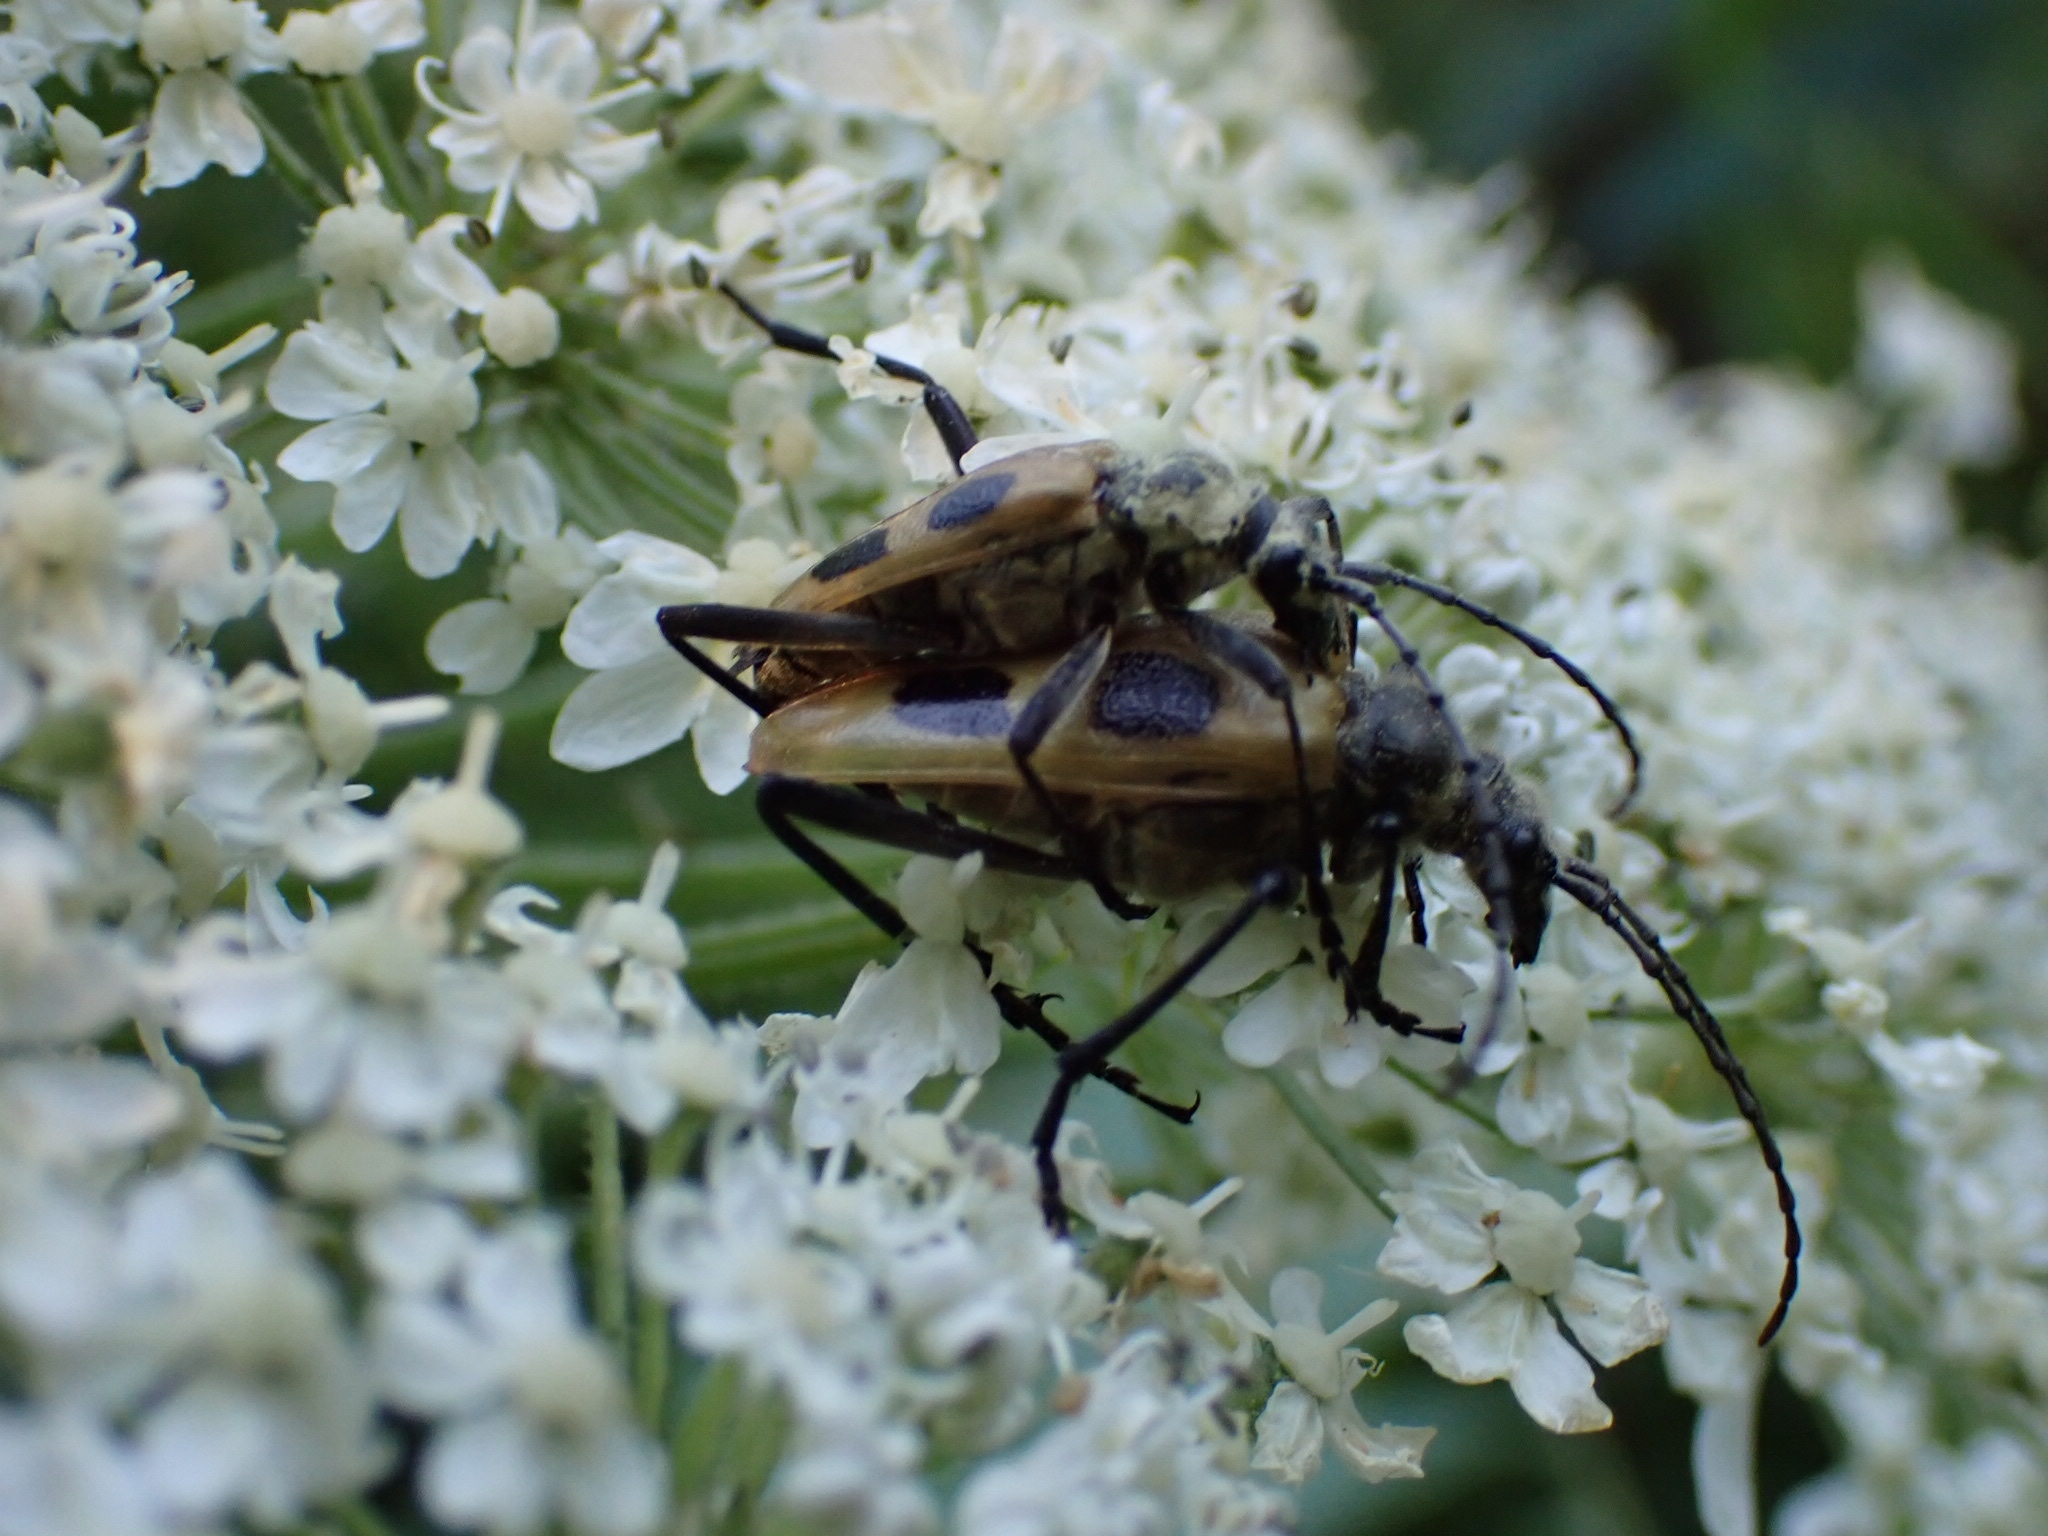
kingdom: Animalia
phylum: Arthropoda
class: Insecta
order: Coleoptera
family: Cerambycidae
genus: Pachyta
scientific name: Pachyta quadrimaculata
